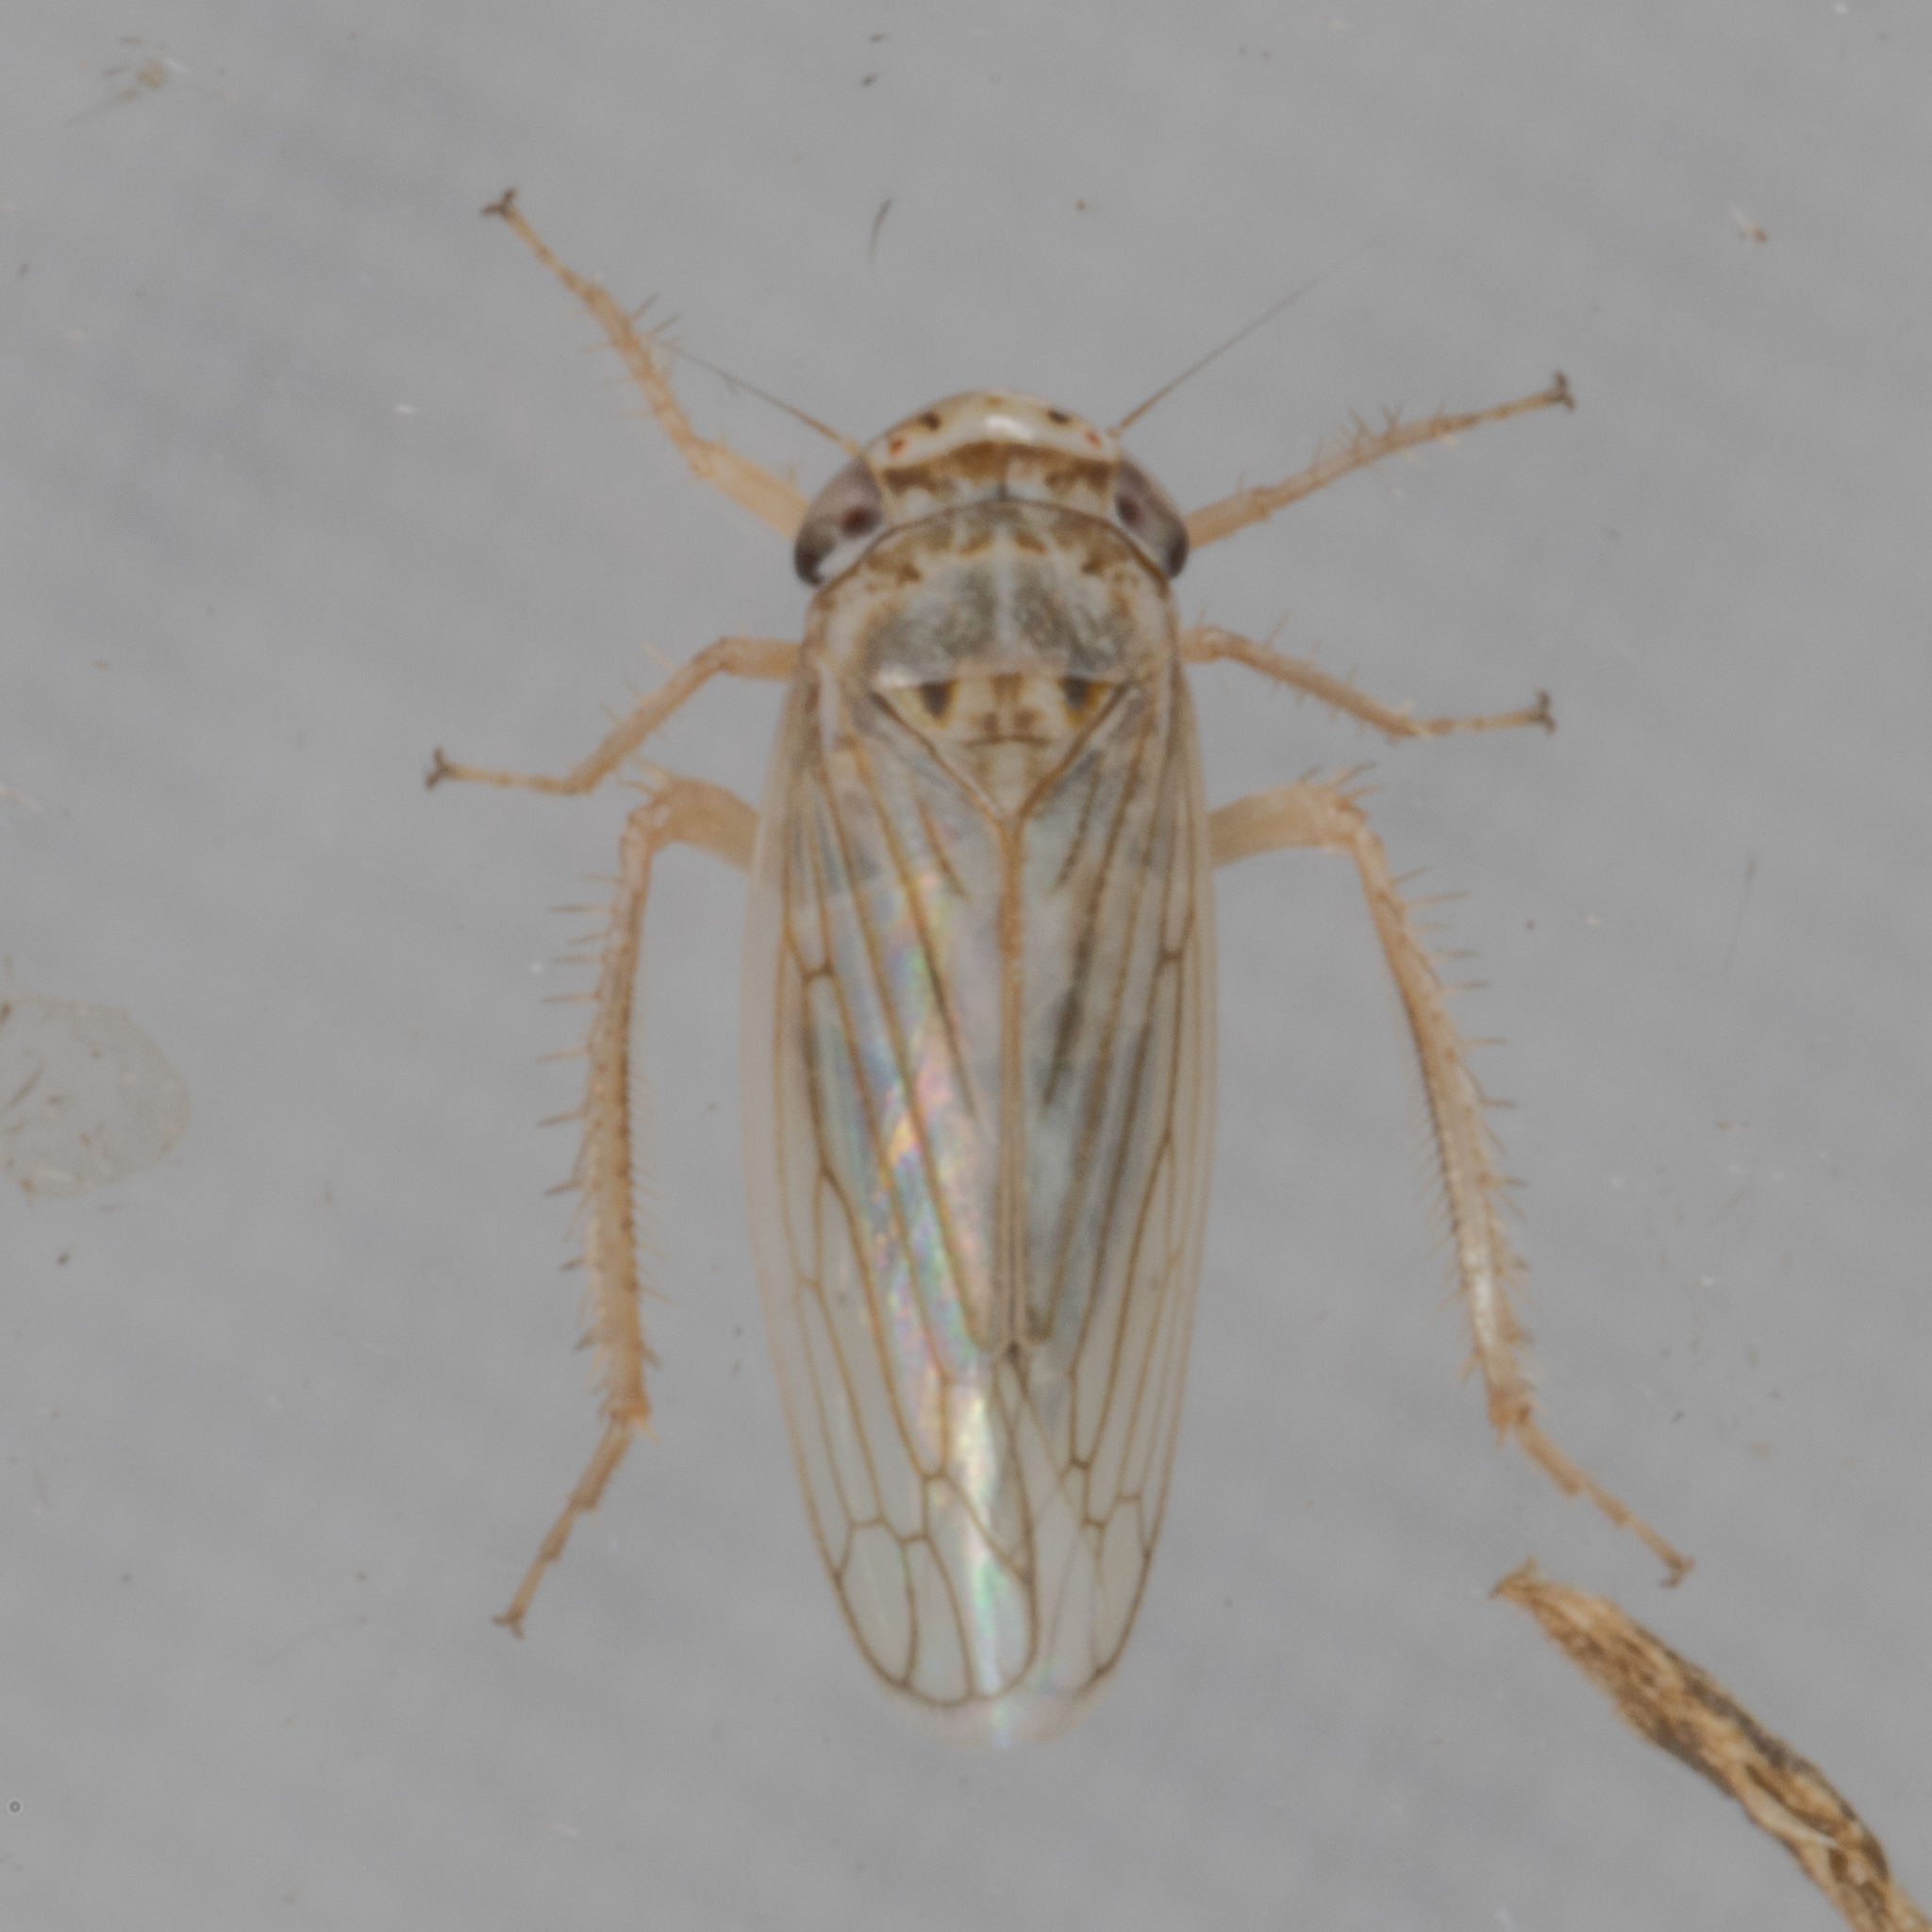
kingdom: Animalia
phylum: Arthropoda
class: Insecta
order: Hemiptera
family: Cicadellidae
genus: Exitianus
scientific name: Exitianus exitiosus
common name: Gray lawn leafhopper
